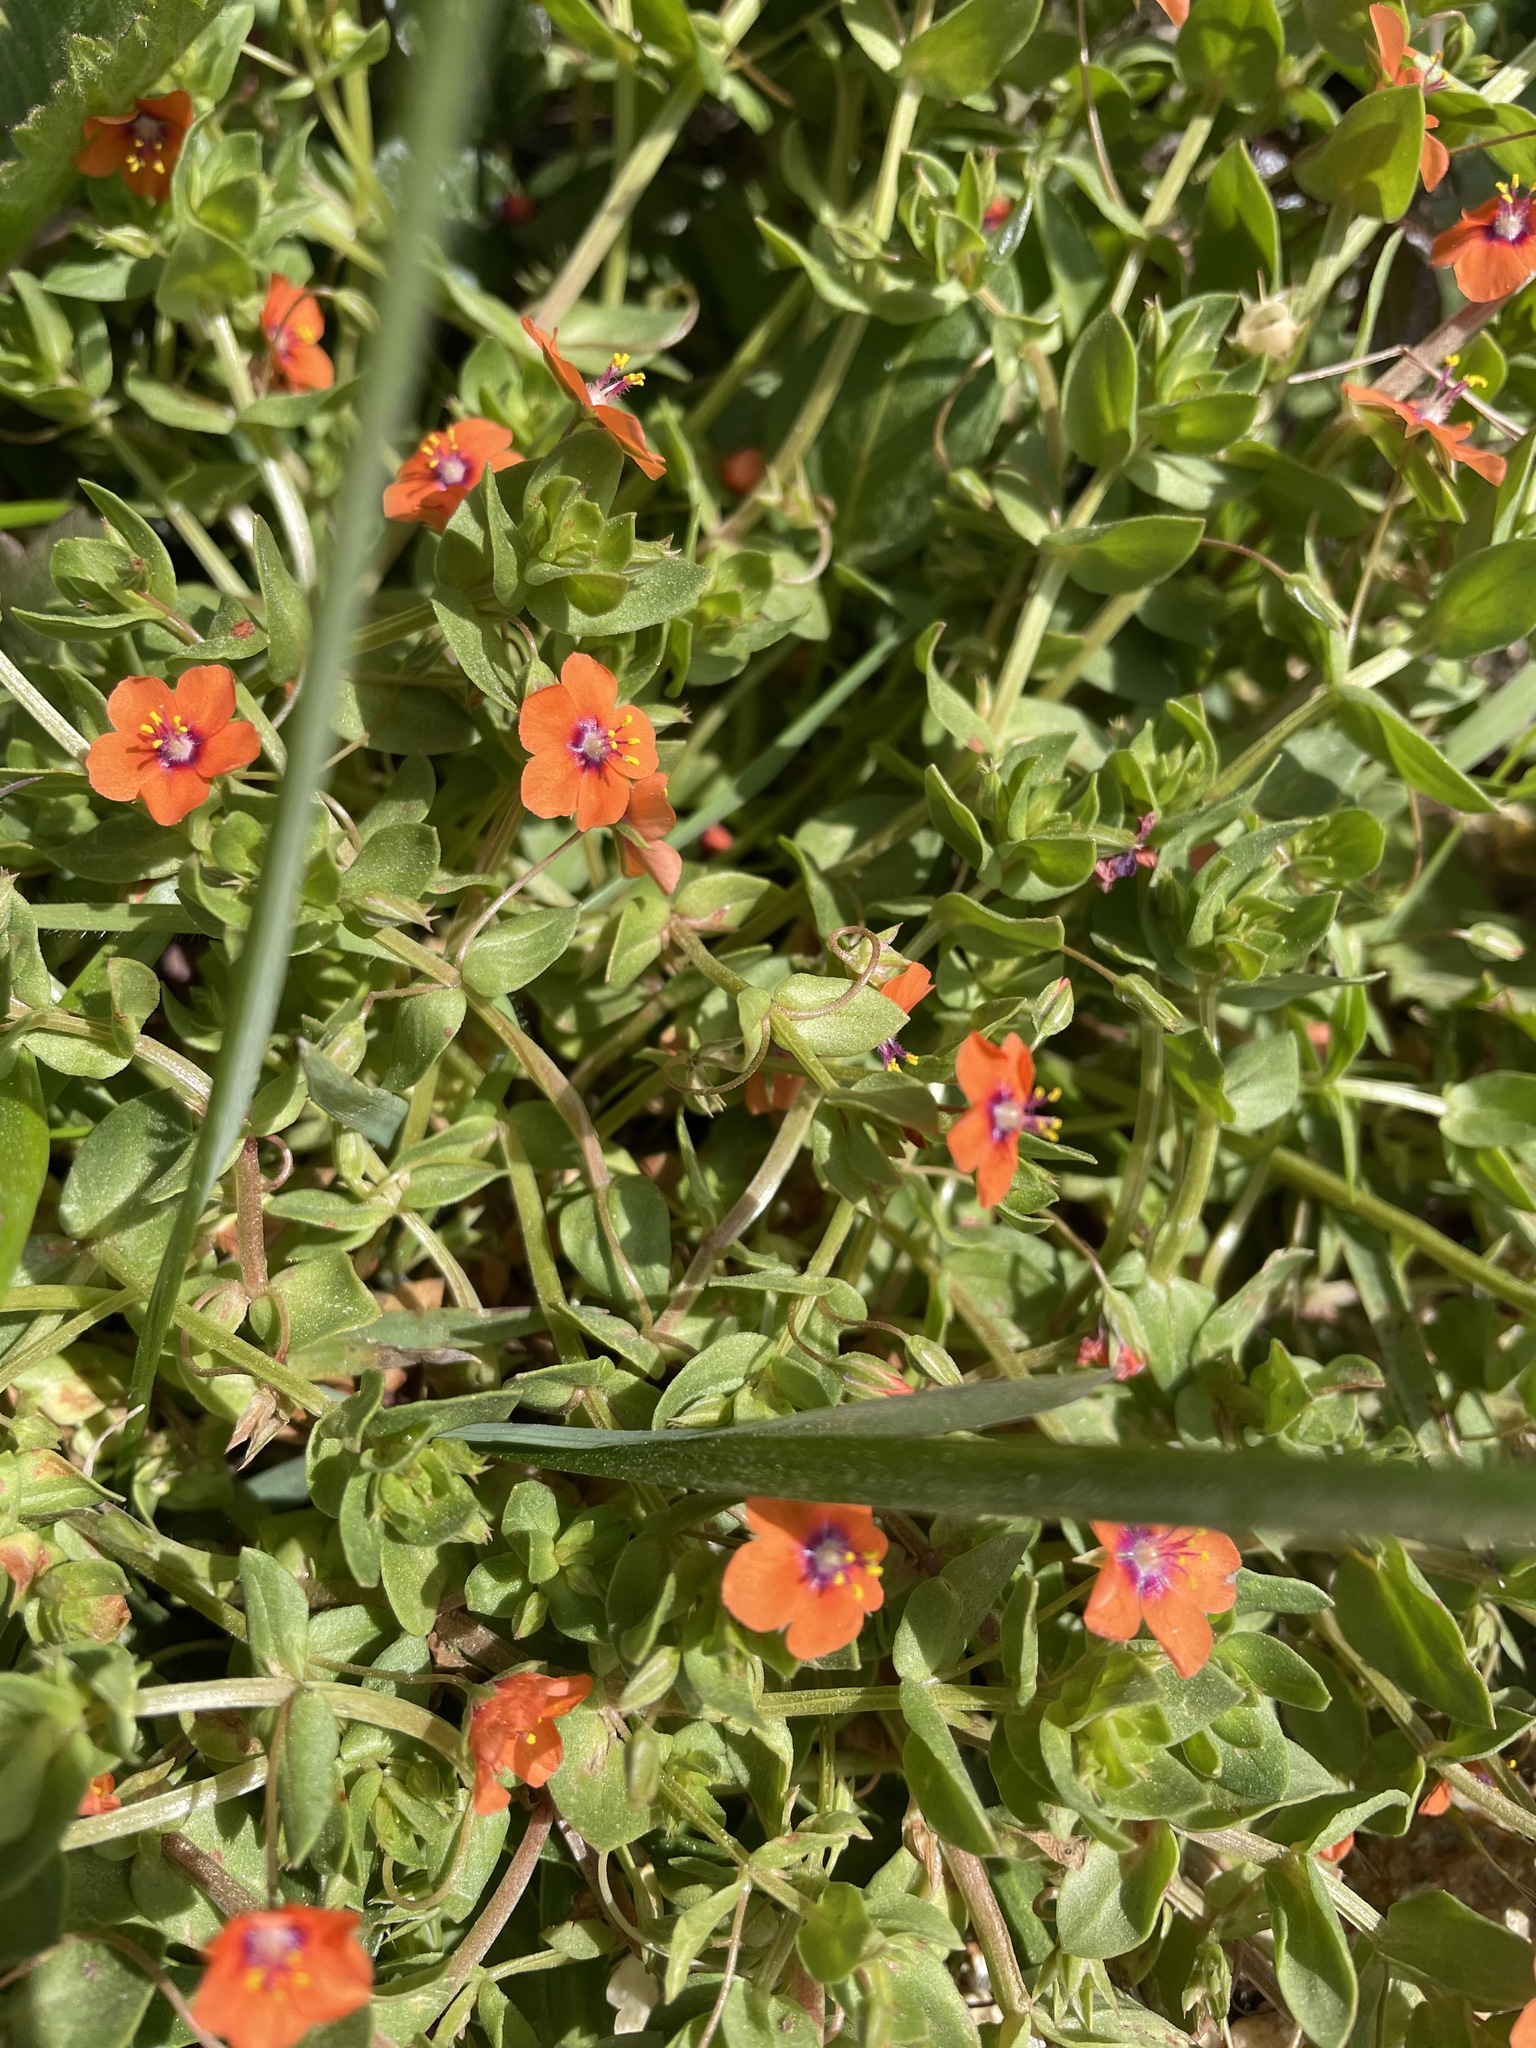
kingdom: Plantae
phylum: Tracheophyta
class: Magnoliopsida
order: Ericales
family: Primulaceae
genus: Lysimachia
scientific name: Lysimachia arvensis
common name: Scarlet pimpernel
